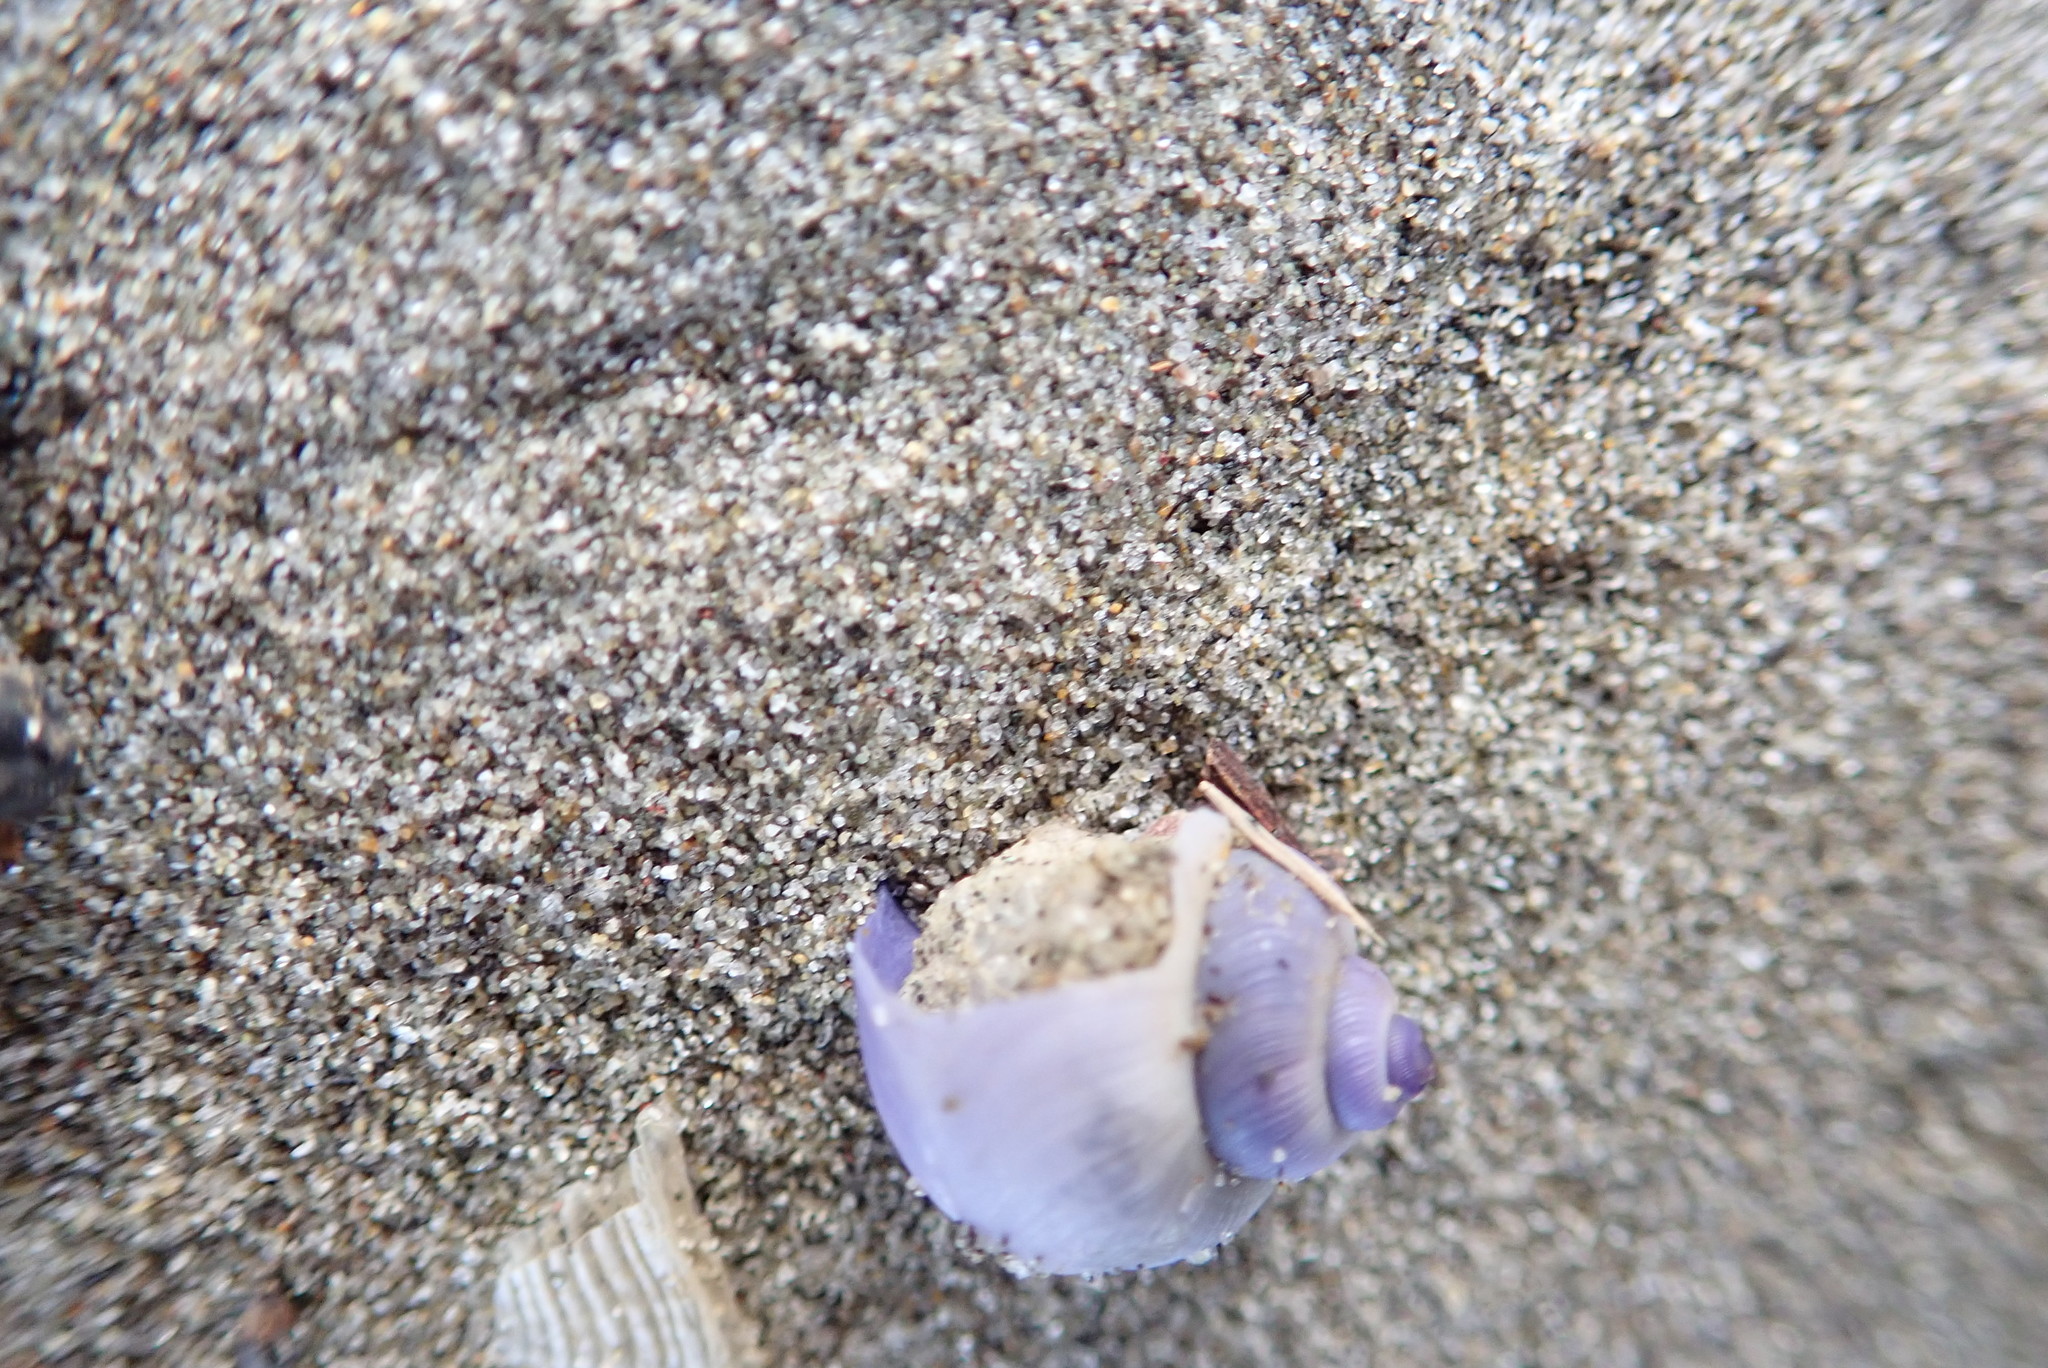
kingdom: Animalia
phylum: Mollusca
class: Gastropoda
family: Epitoniidae
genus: Janthina
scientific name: Janthina exigua
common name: Dwarf janthina
